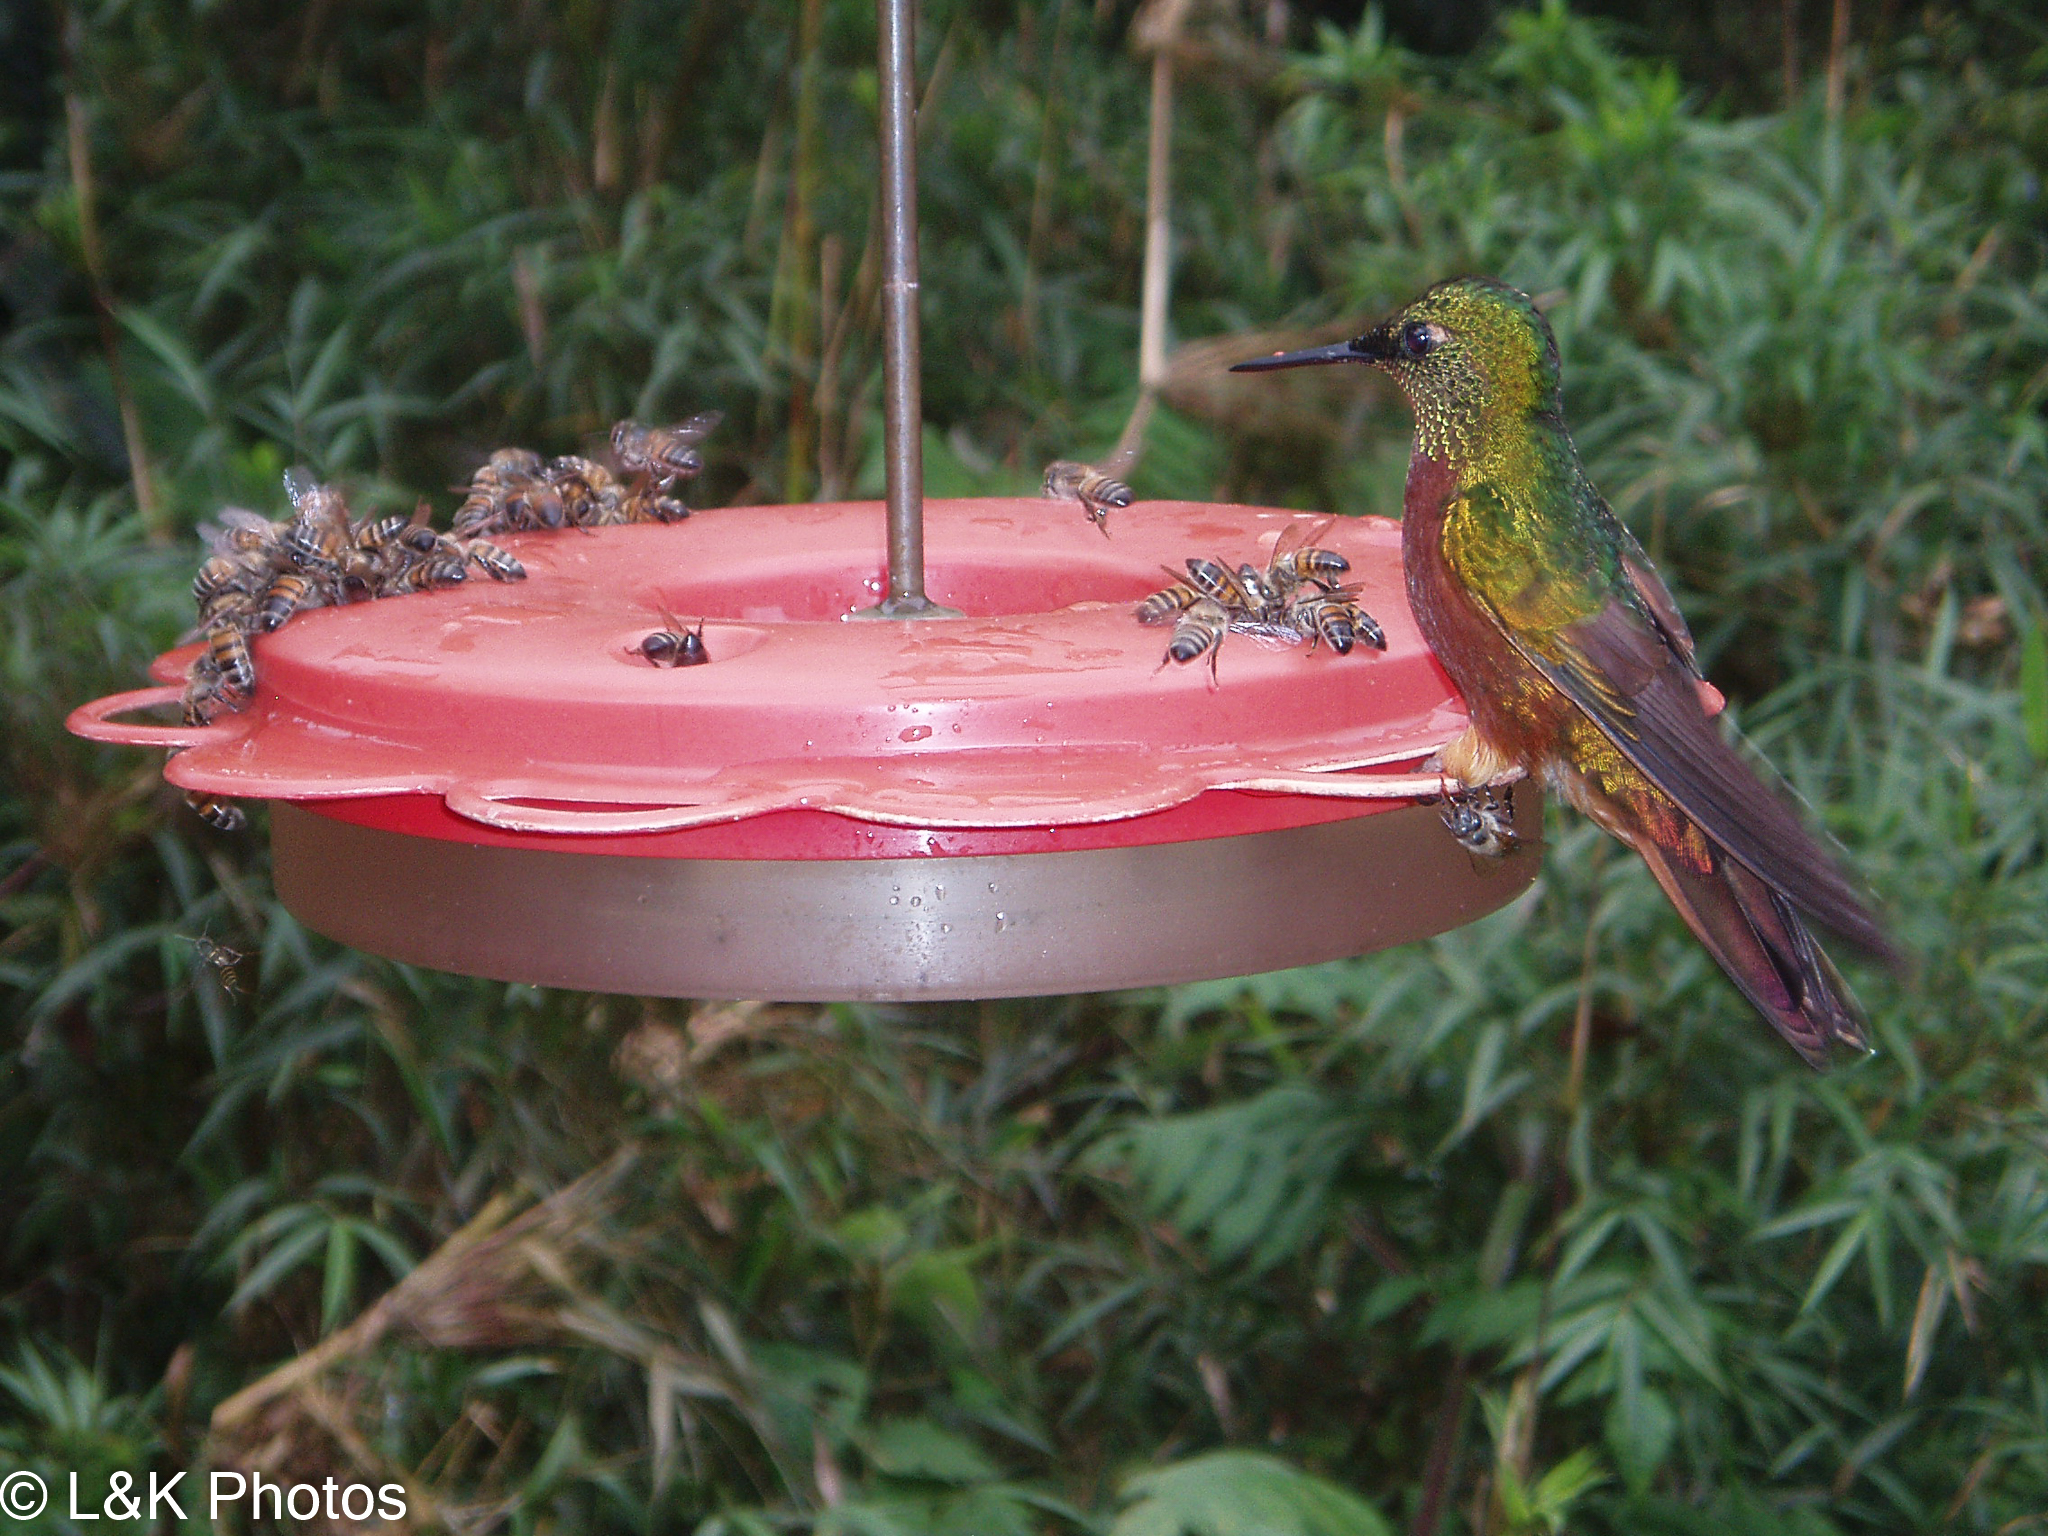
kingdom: Animalia
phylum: Chordata
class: Aves
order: Apodiformes
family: Trochilidae
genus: Boissonneaua
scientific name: Boissonneaua matthewsii
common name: Chestnut-breasted coronet
